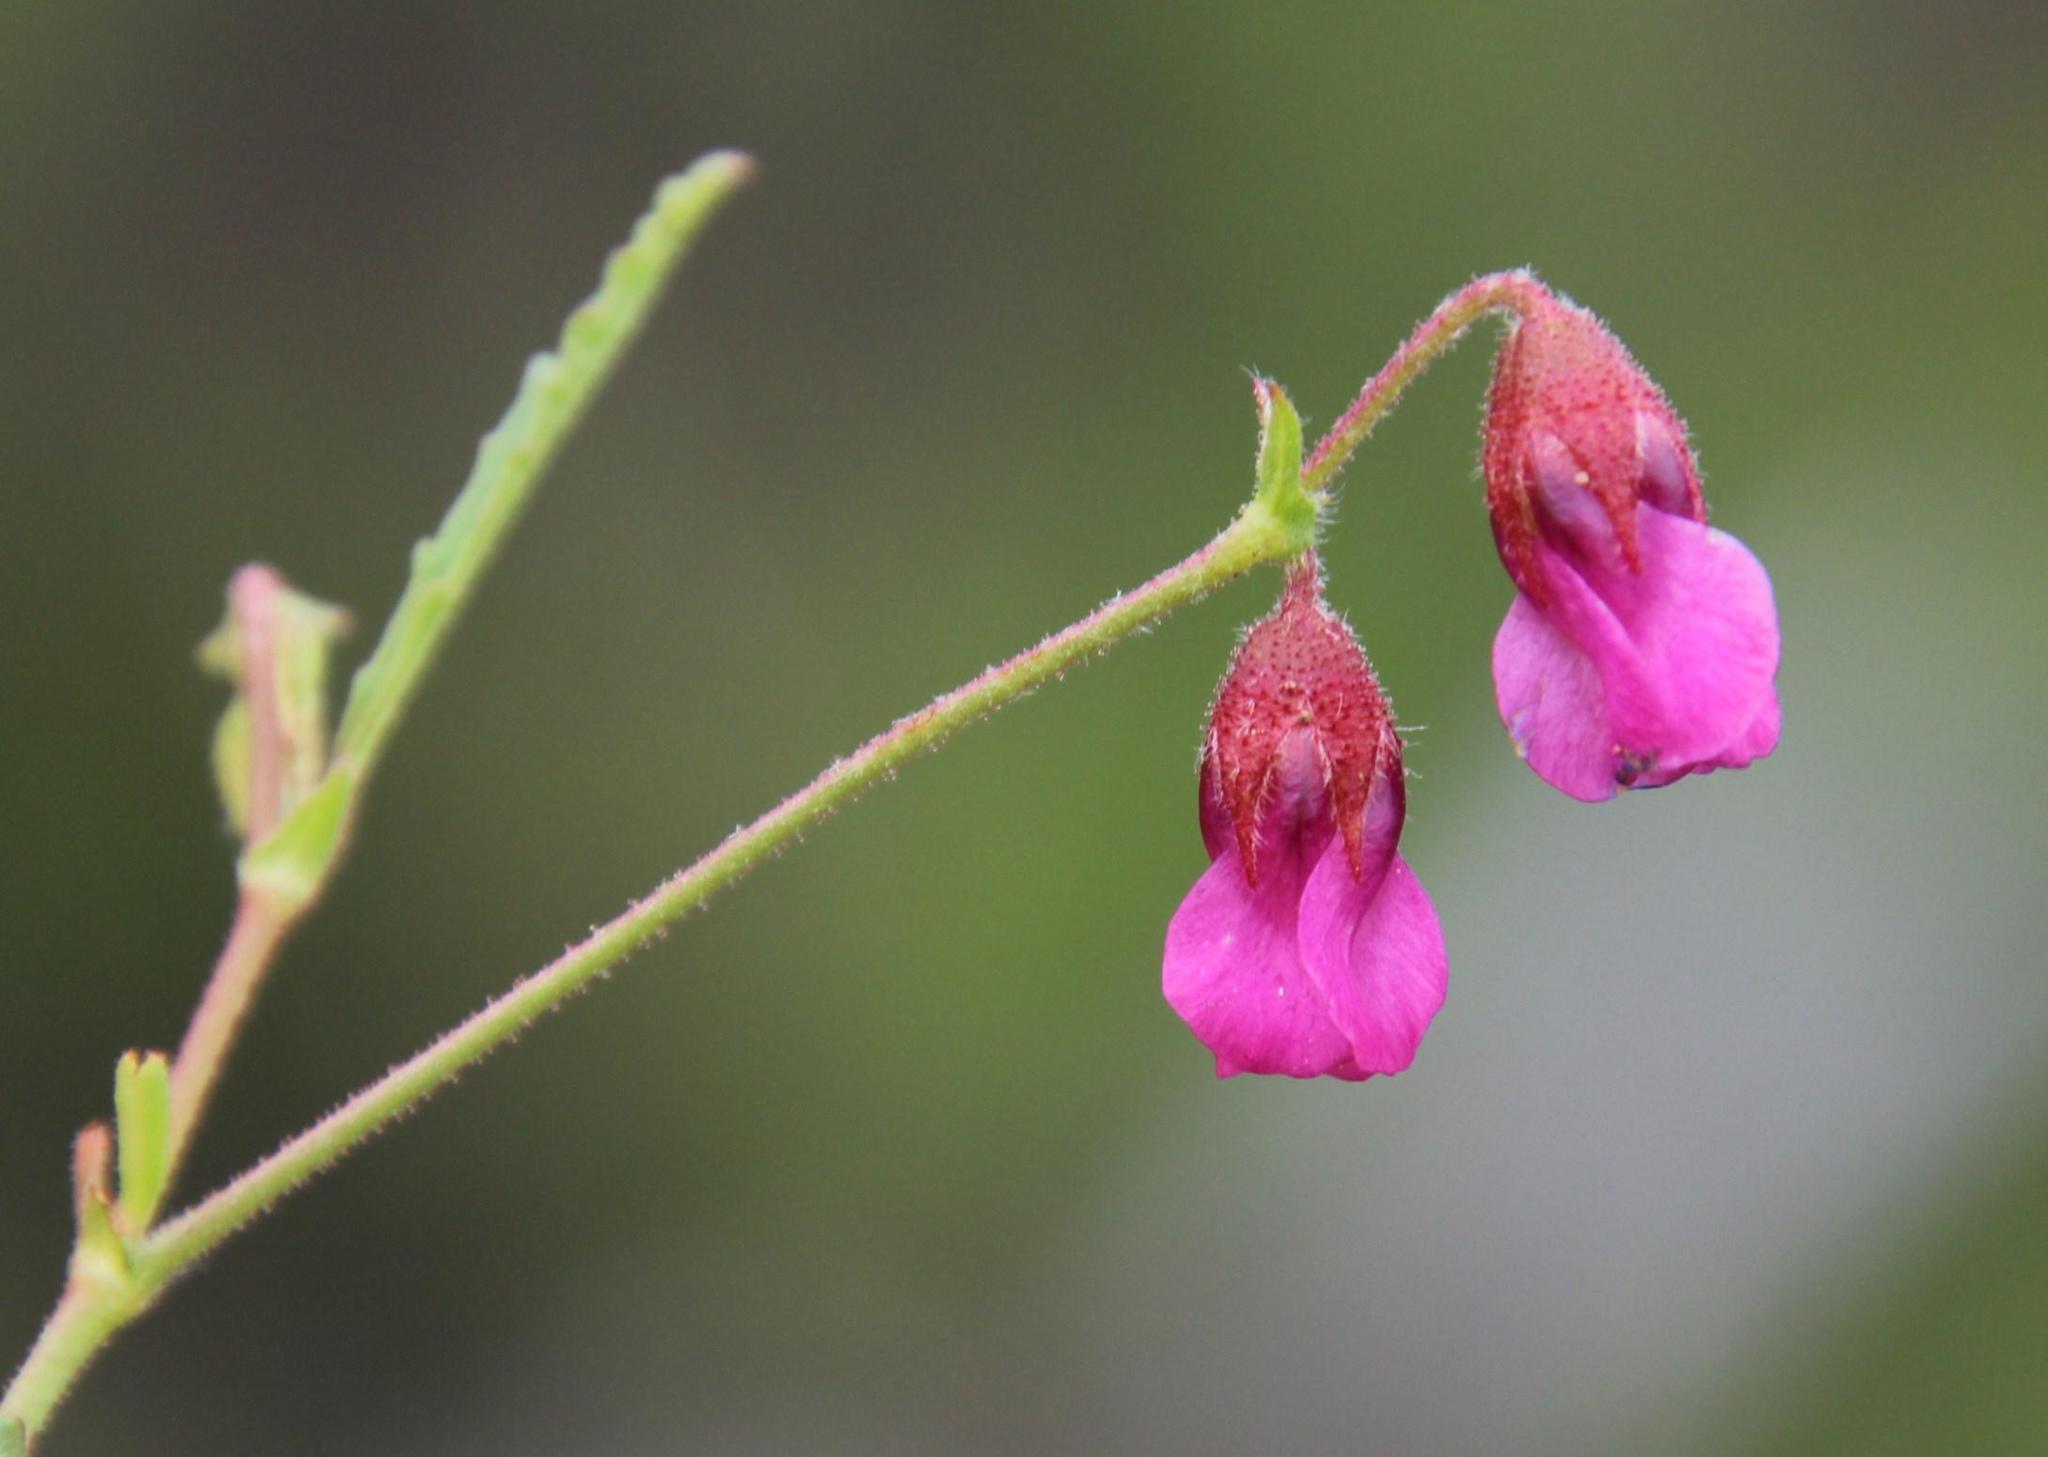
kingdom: Plantae
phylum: Tracheophyta
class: Magnoliopsida
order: Malvales
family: Malvaceae
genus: Hermannia
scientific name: Hermannia coccocarpa
